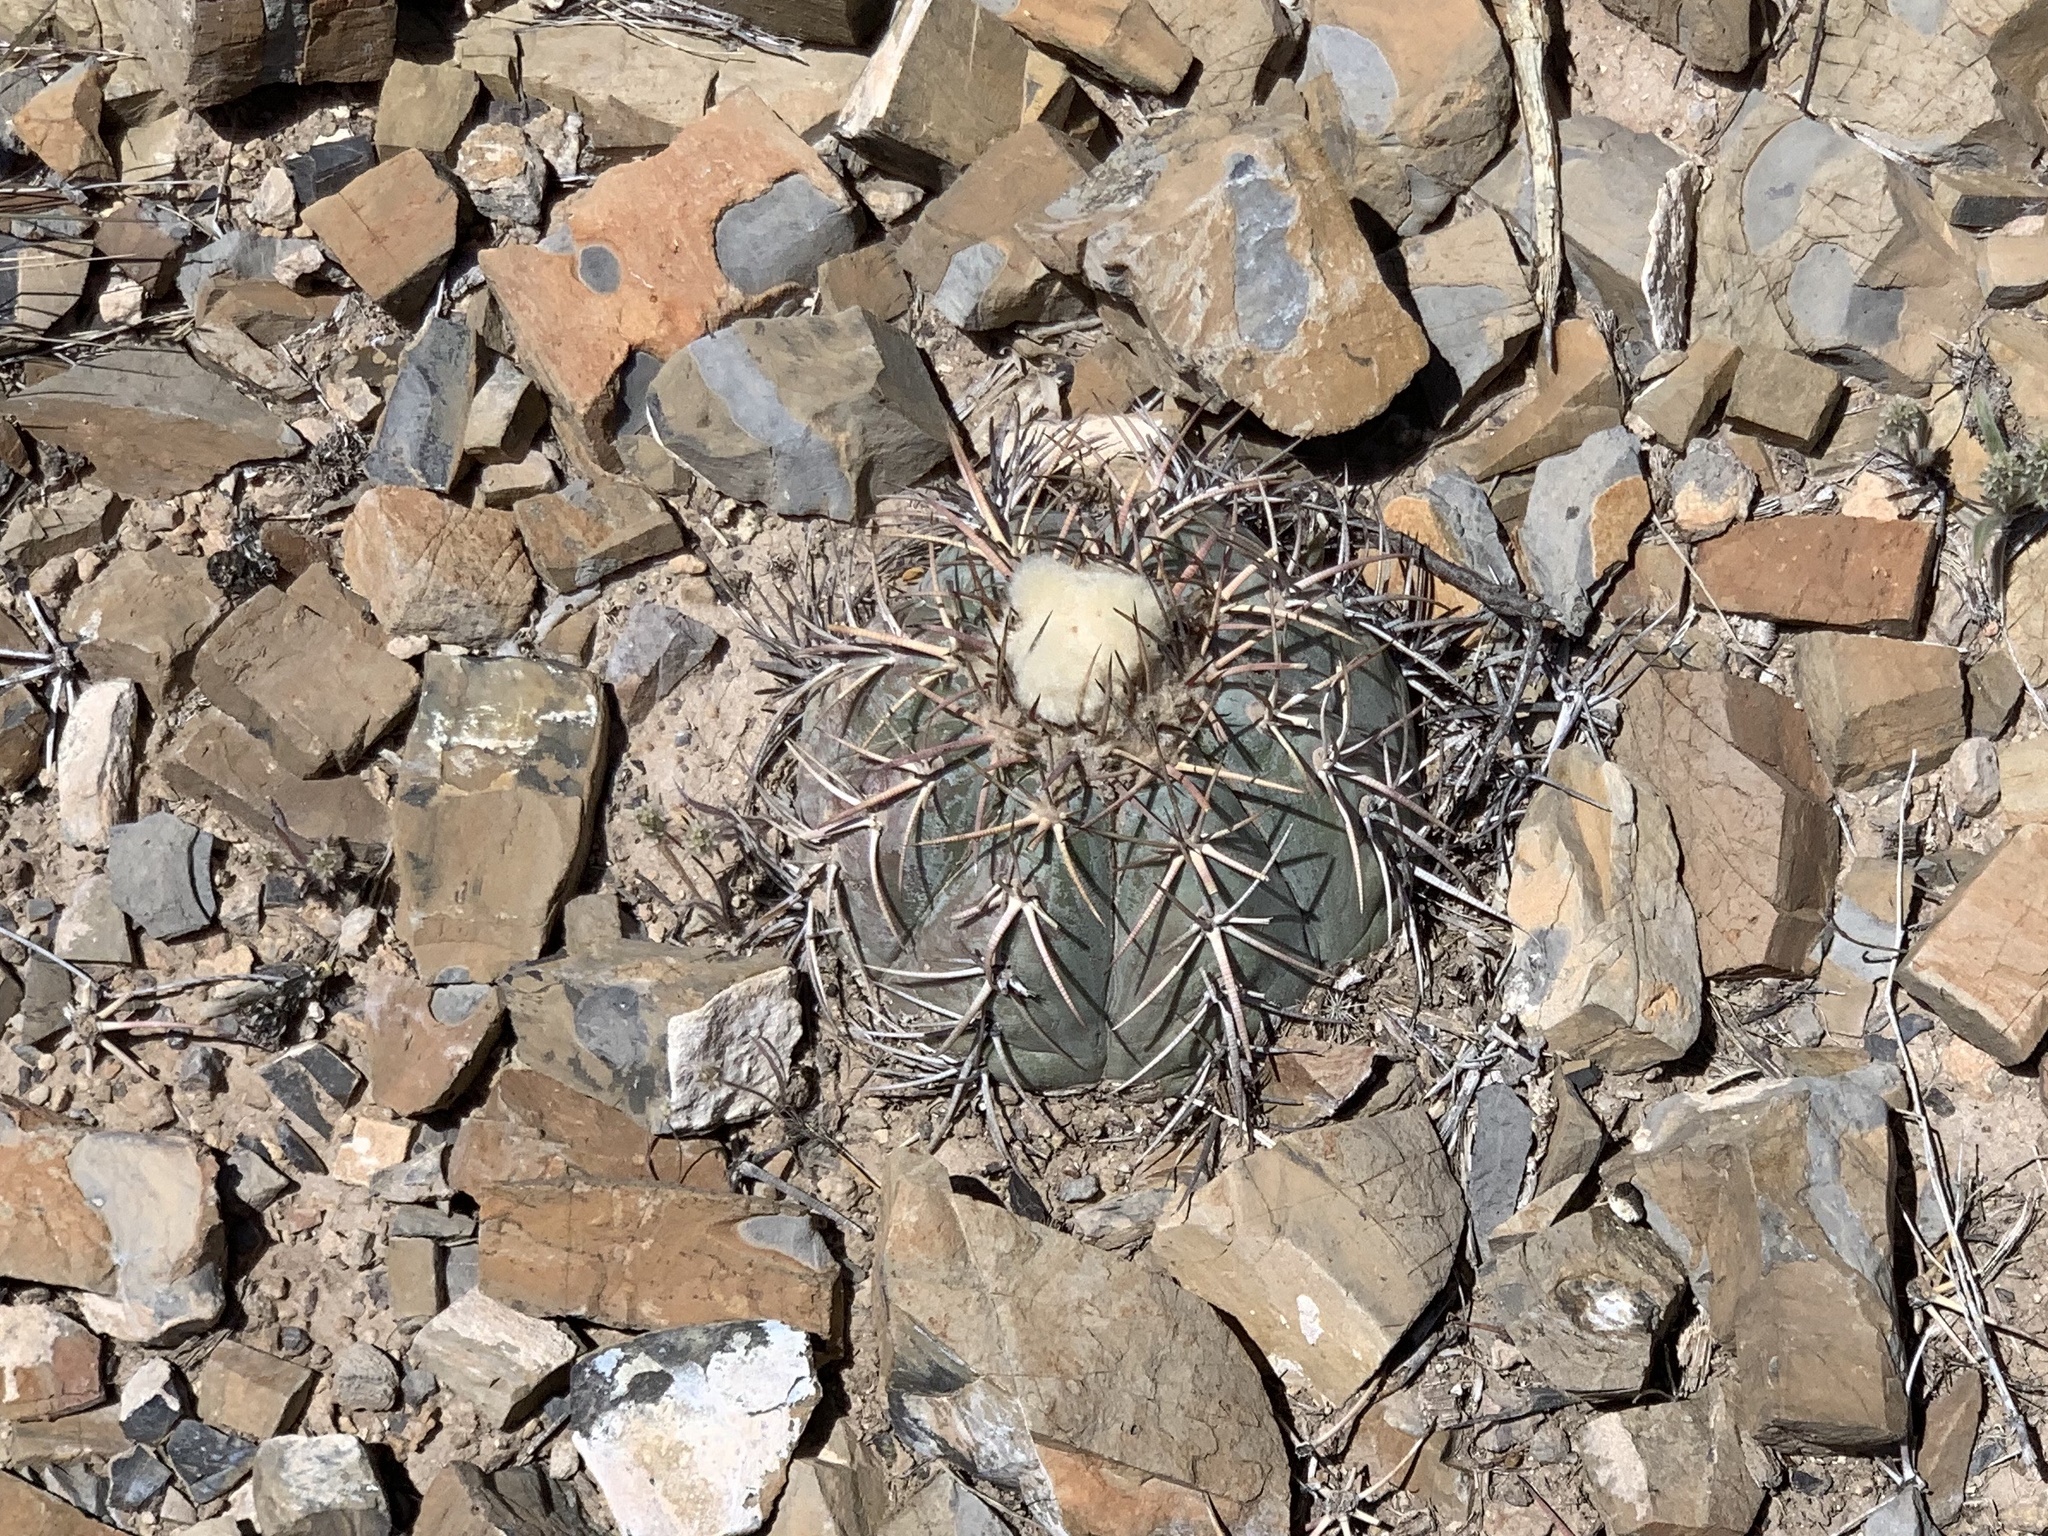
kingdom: Plantae
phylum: Tracheophyta
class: Magnoliopsida
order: Caryophyllales
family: Cactaceae
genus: Echinocactus
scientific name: Echinocactus horizonthalonius
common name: Devilshead
